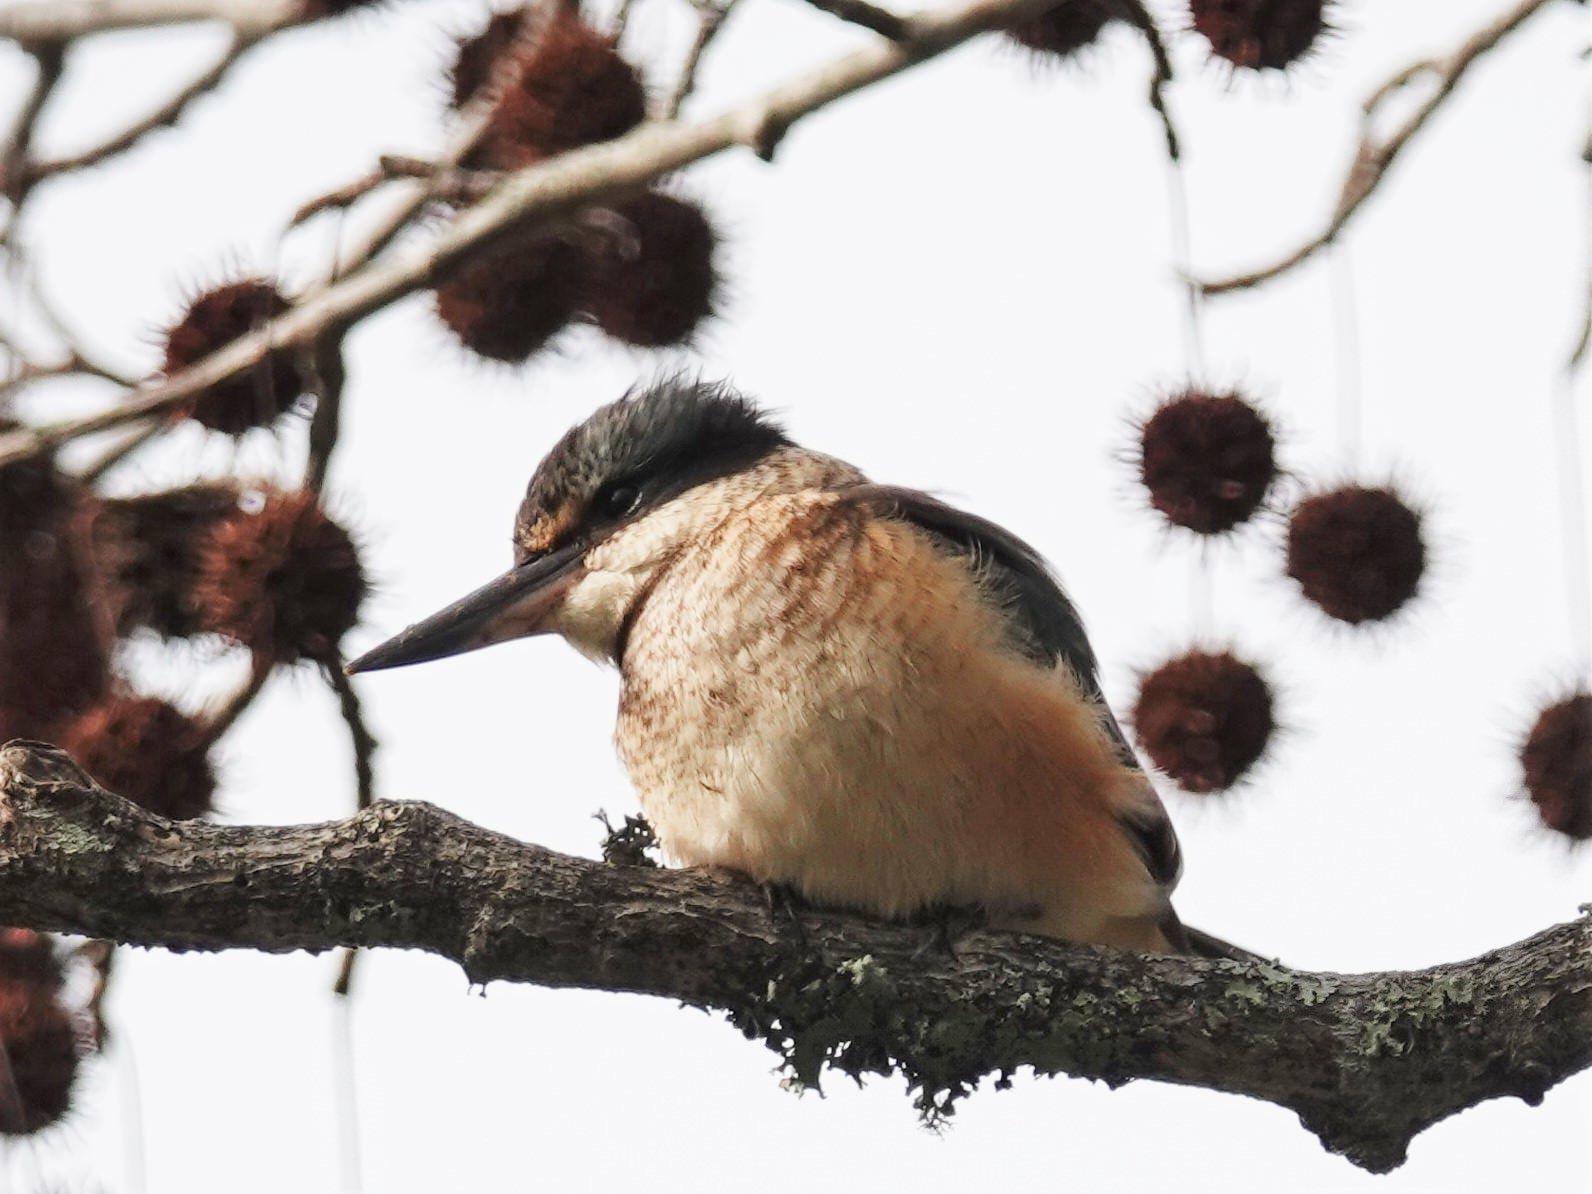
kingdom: Animalia
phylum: Chordata
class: Aves
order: Coraciiformes
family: Alcedinidae
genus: Todiramphus
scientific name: Todiramphus sanctus
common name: Sacred kingfisher
